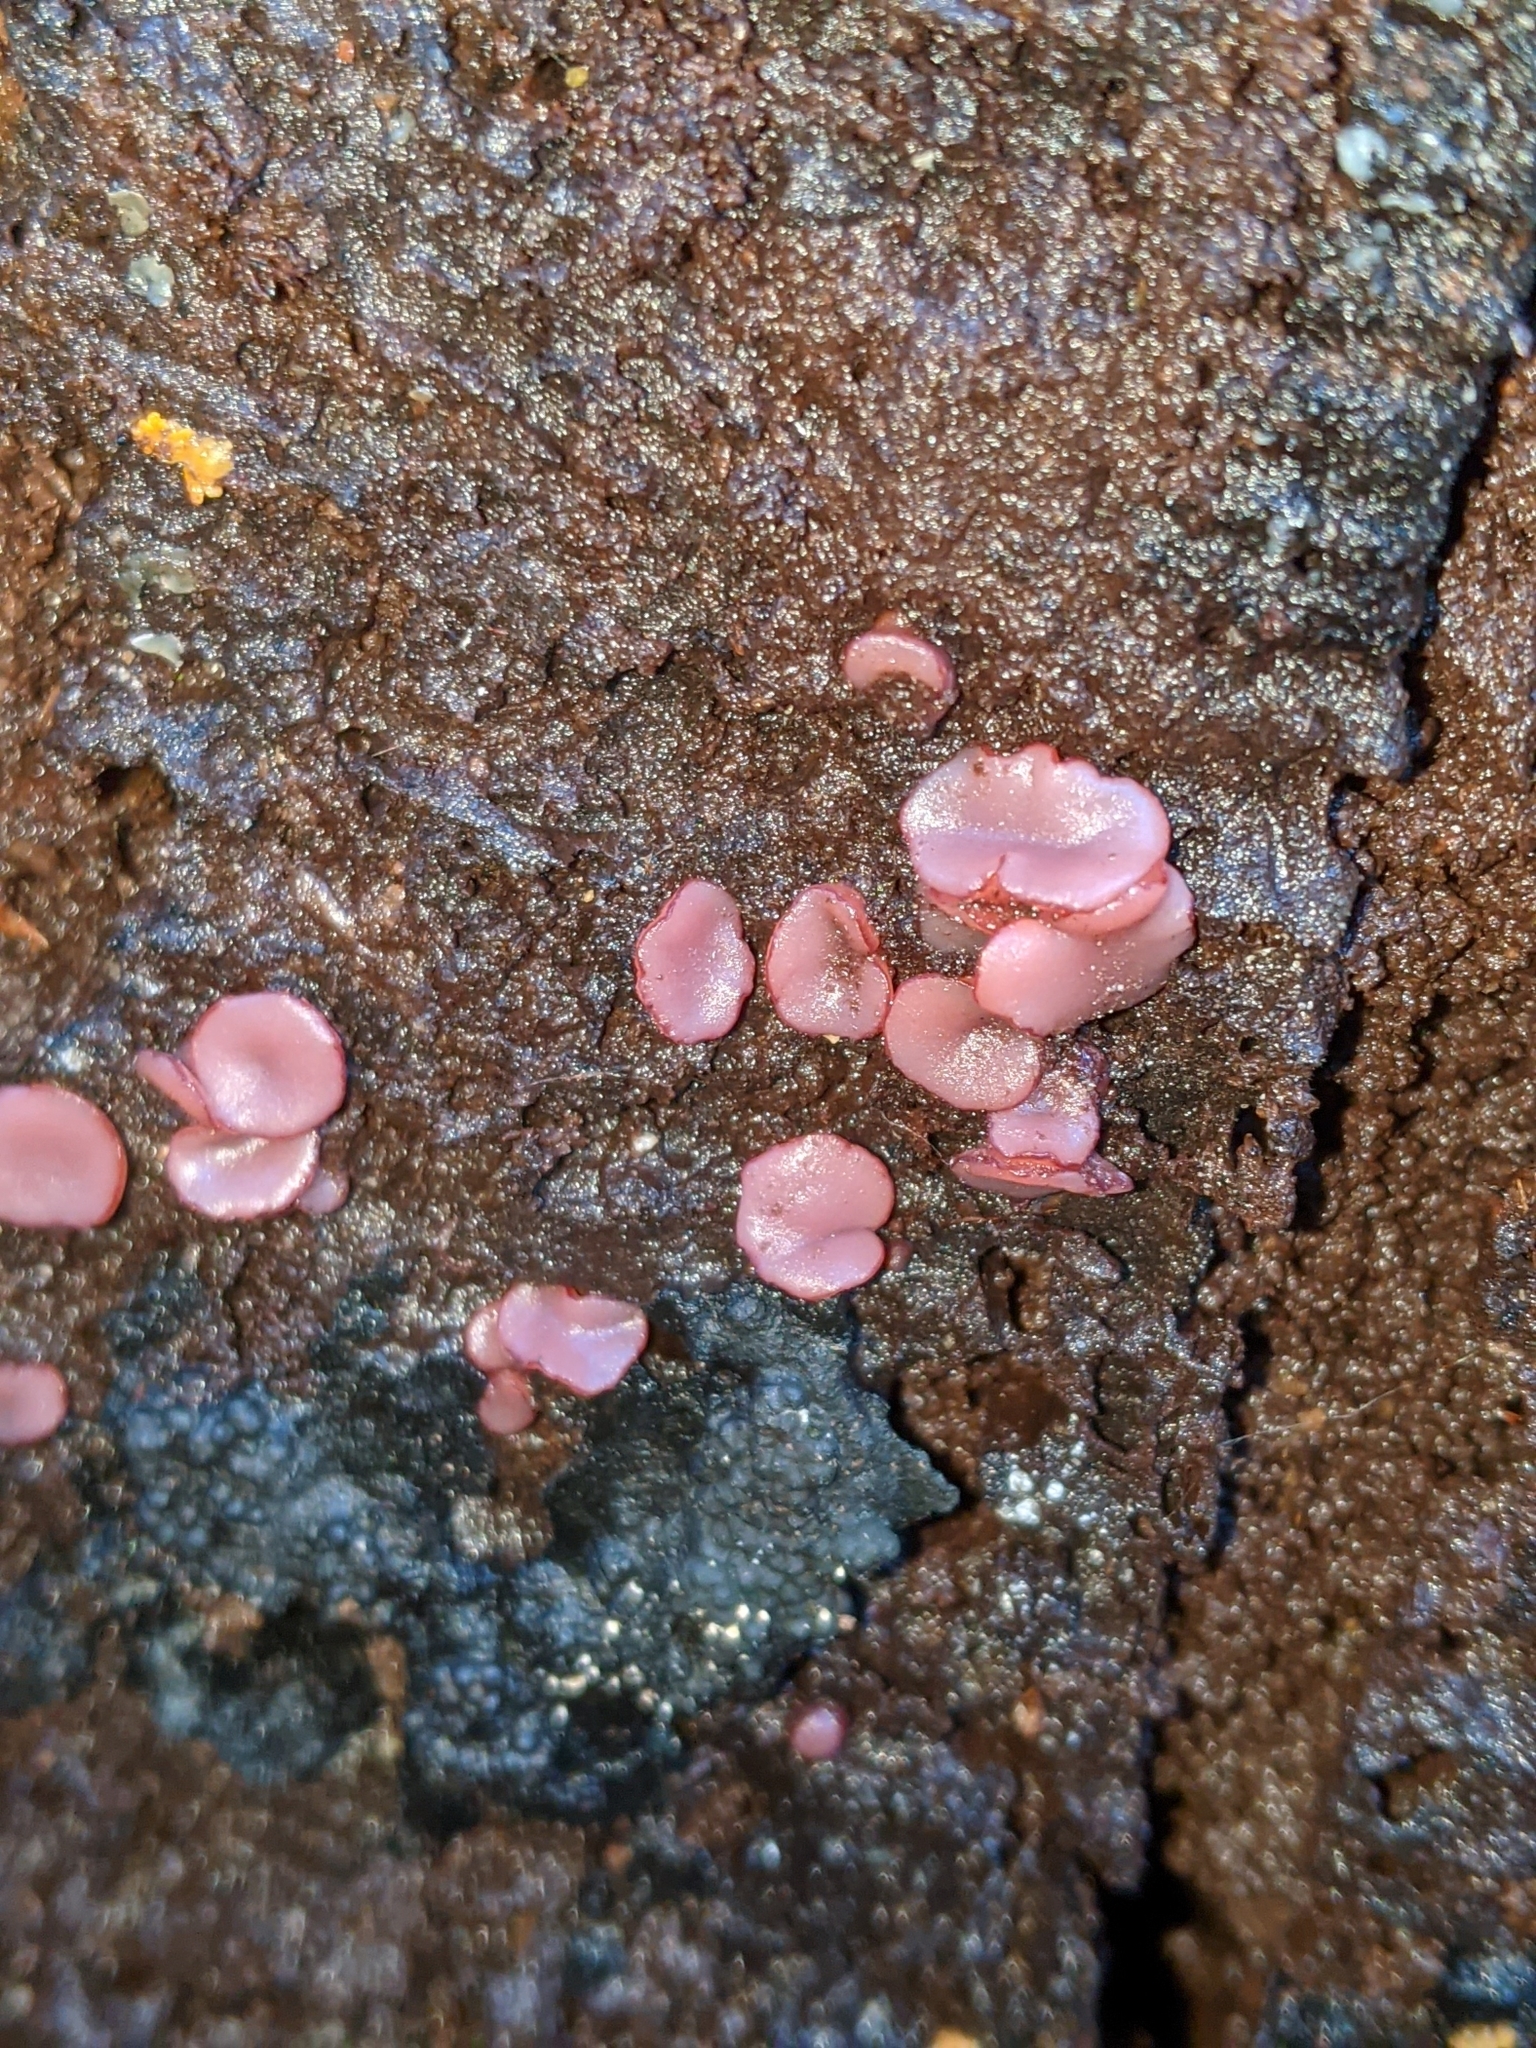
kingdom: Fungi
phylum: Ascomycota
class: Leotiomycetes
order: Helotiales
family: Gelatinodiscaceae
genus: Ascocoryne
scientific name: Ascocoryne sarcoides
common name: Purple jellydisc
